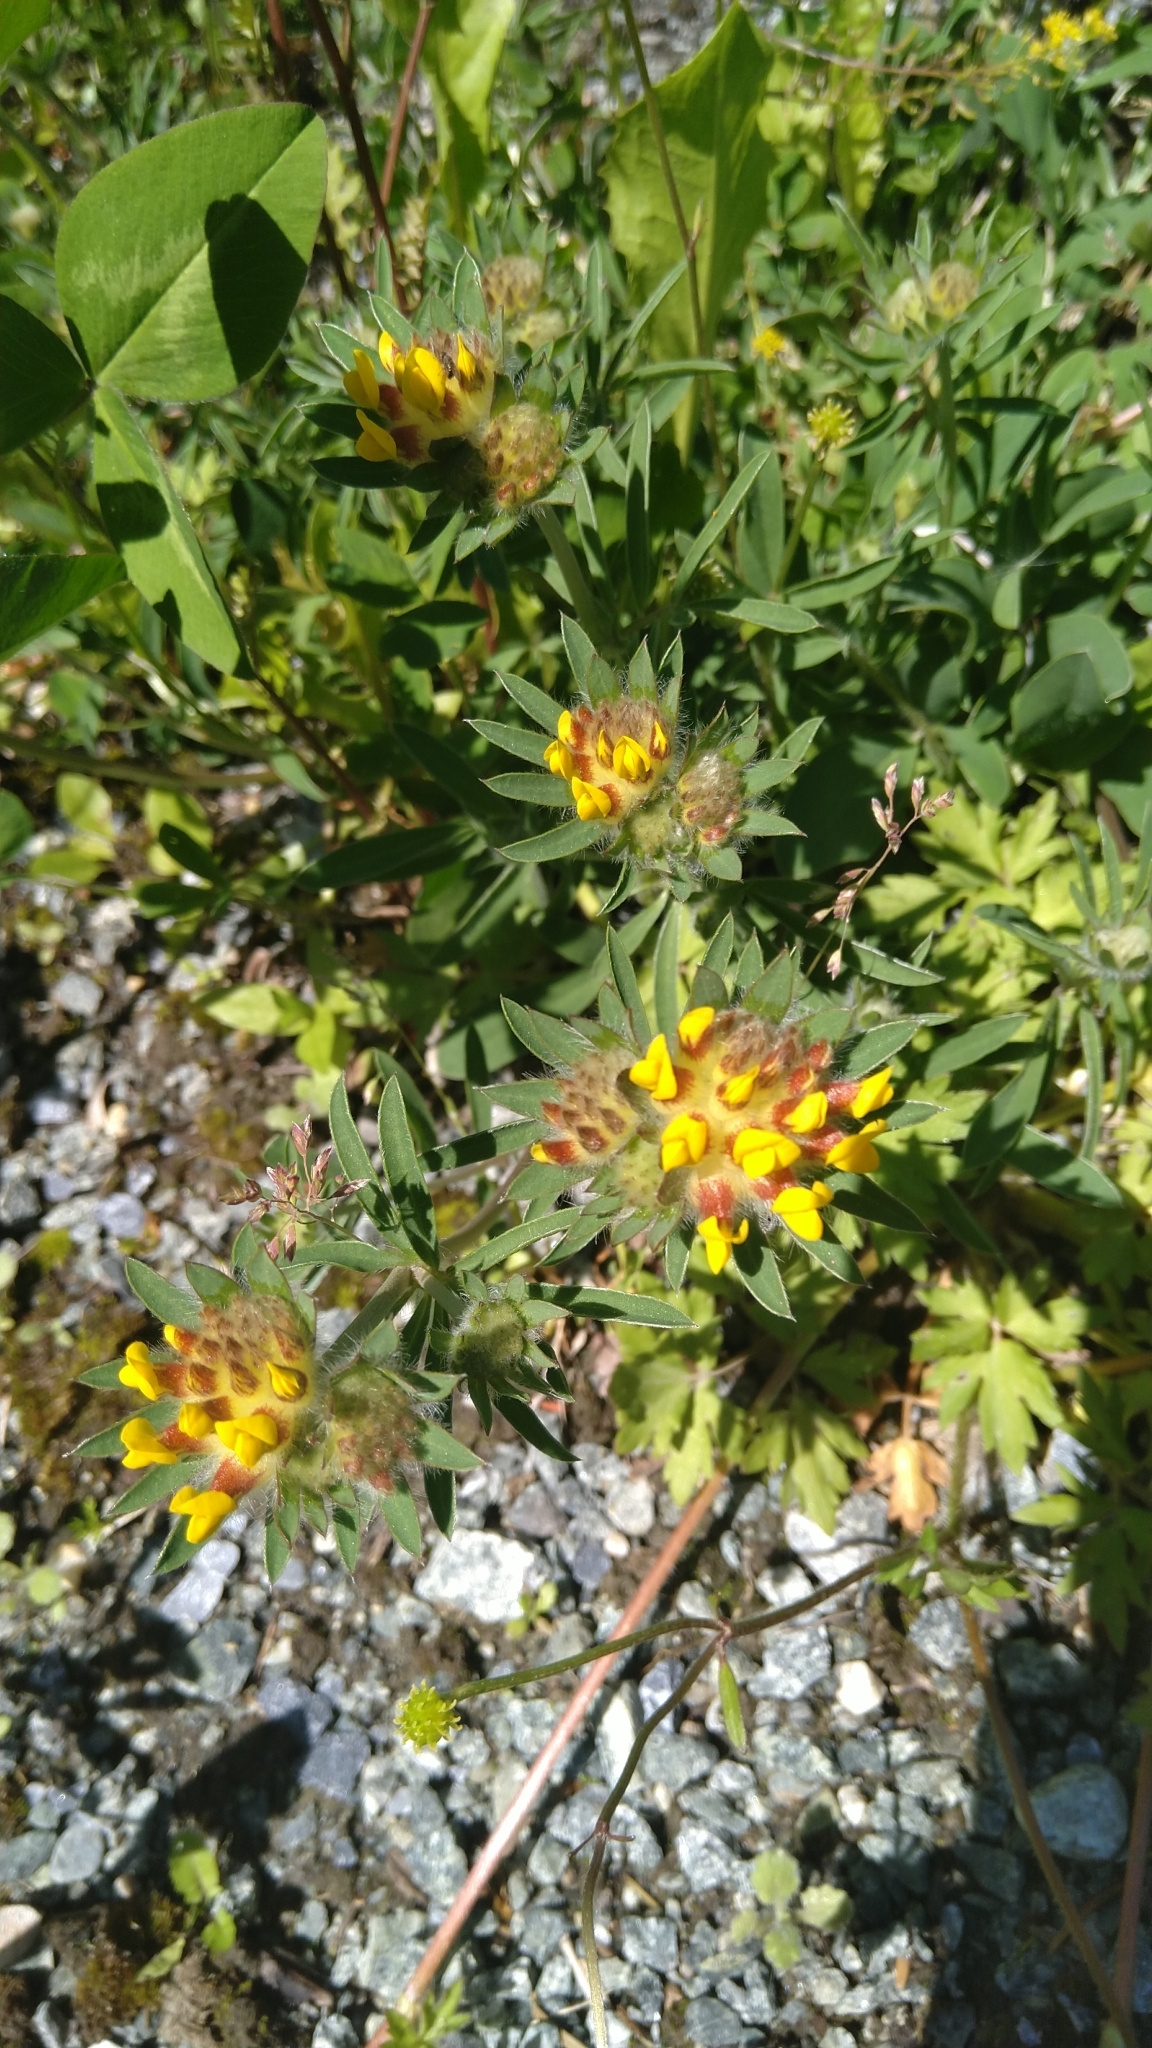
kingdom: Plantae
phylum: Tracheophyta
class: Magnoliopsida
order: Fabales
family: Fabaceae
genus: Anthyllis
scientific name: Anthyllis vulneraria
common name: Kidney vetch
